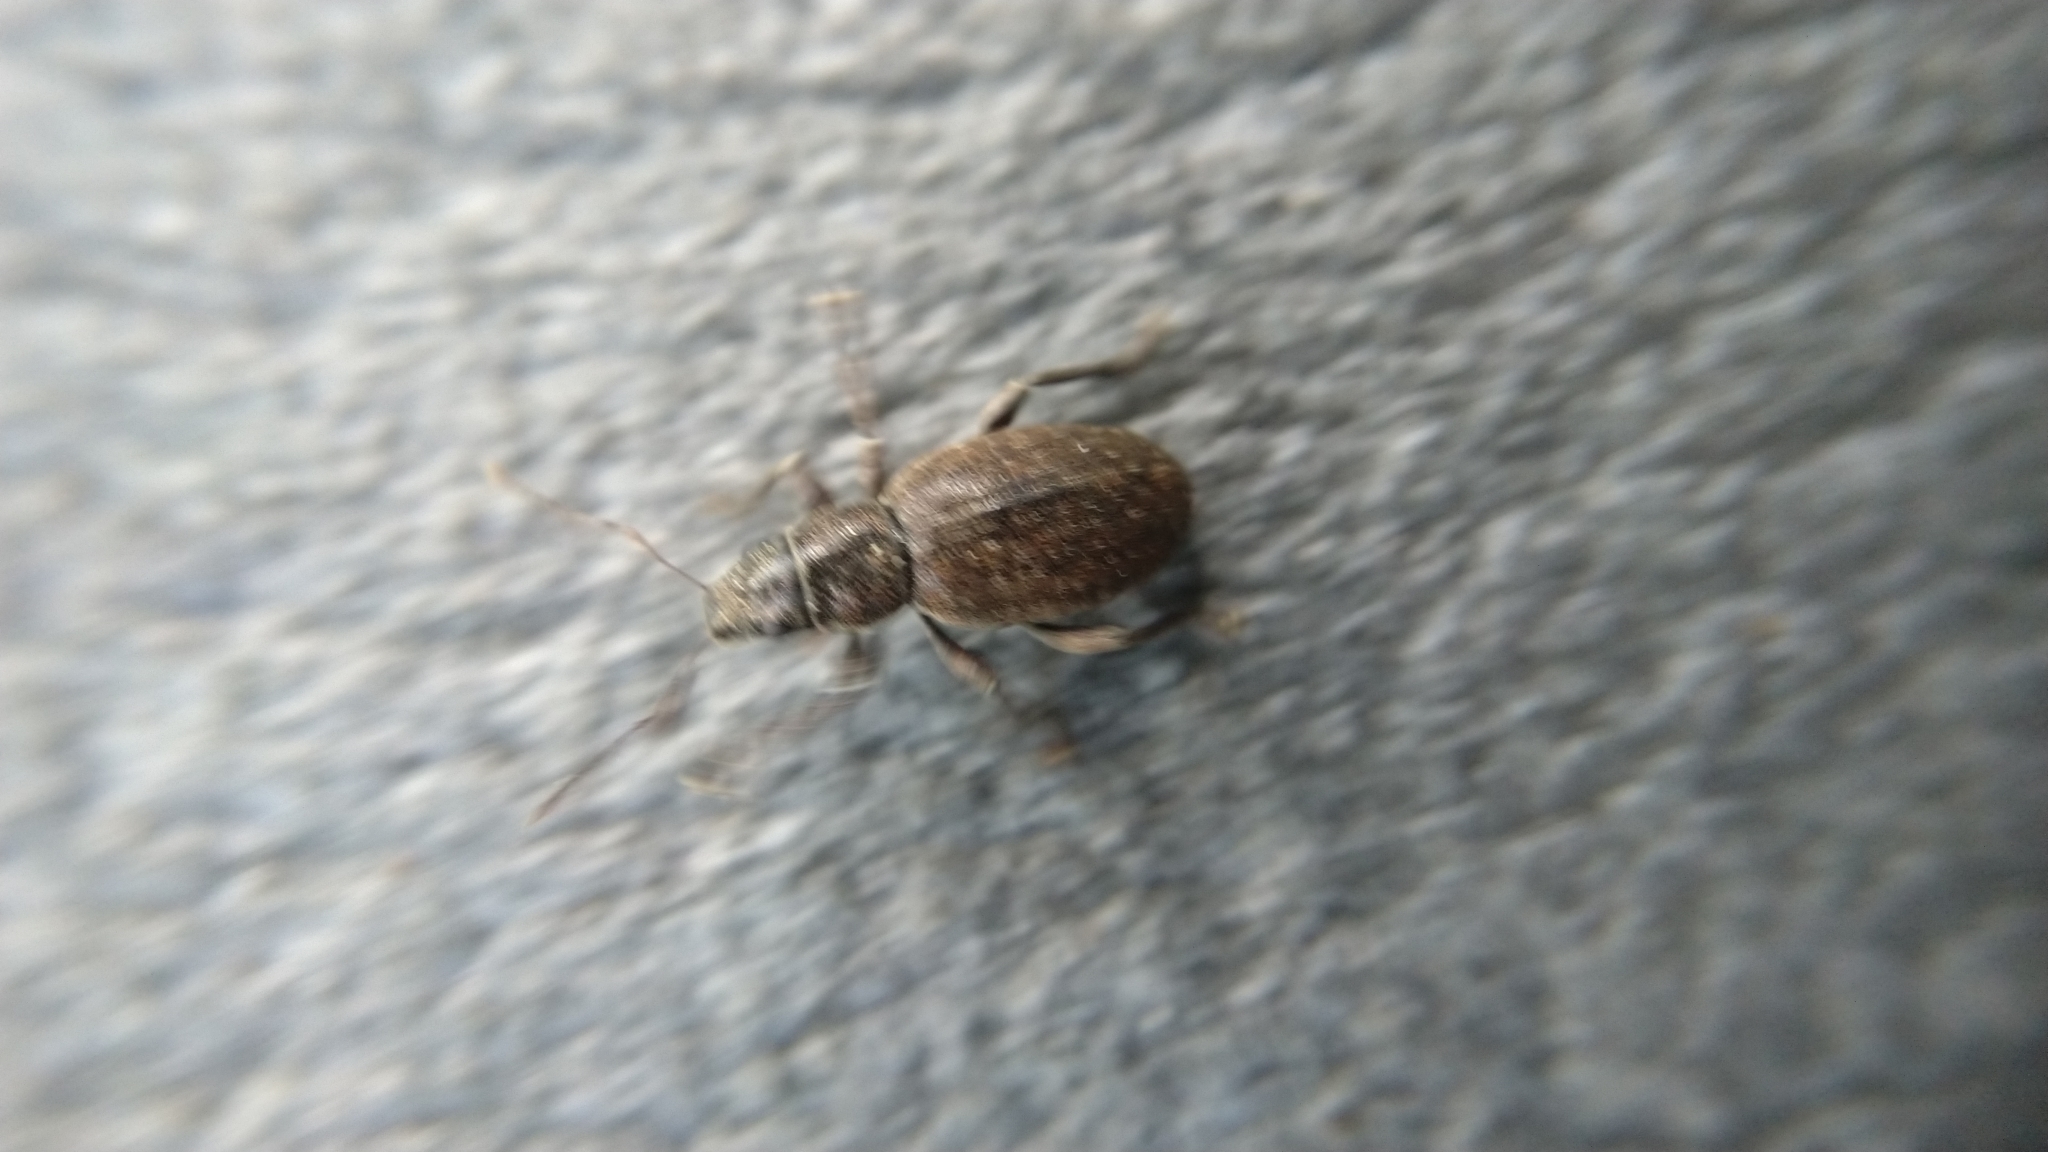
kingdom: Animalia
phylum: Arthropoda
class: Insecta
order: Coleoptera
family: Curculionidae
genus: Brachyderes
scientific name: Brachyderes incanus
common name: Weevil
